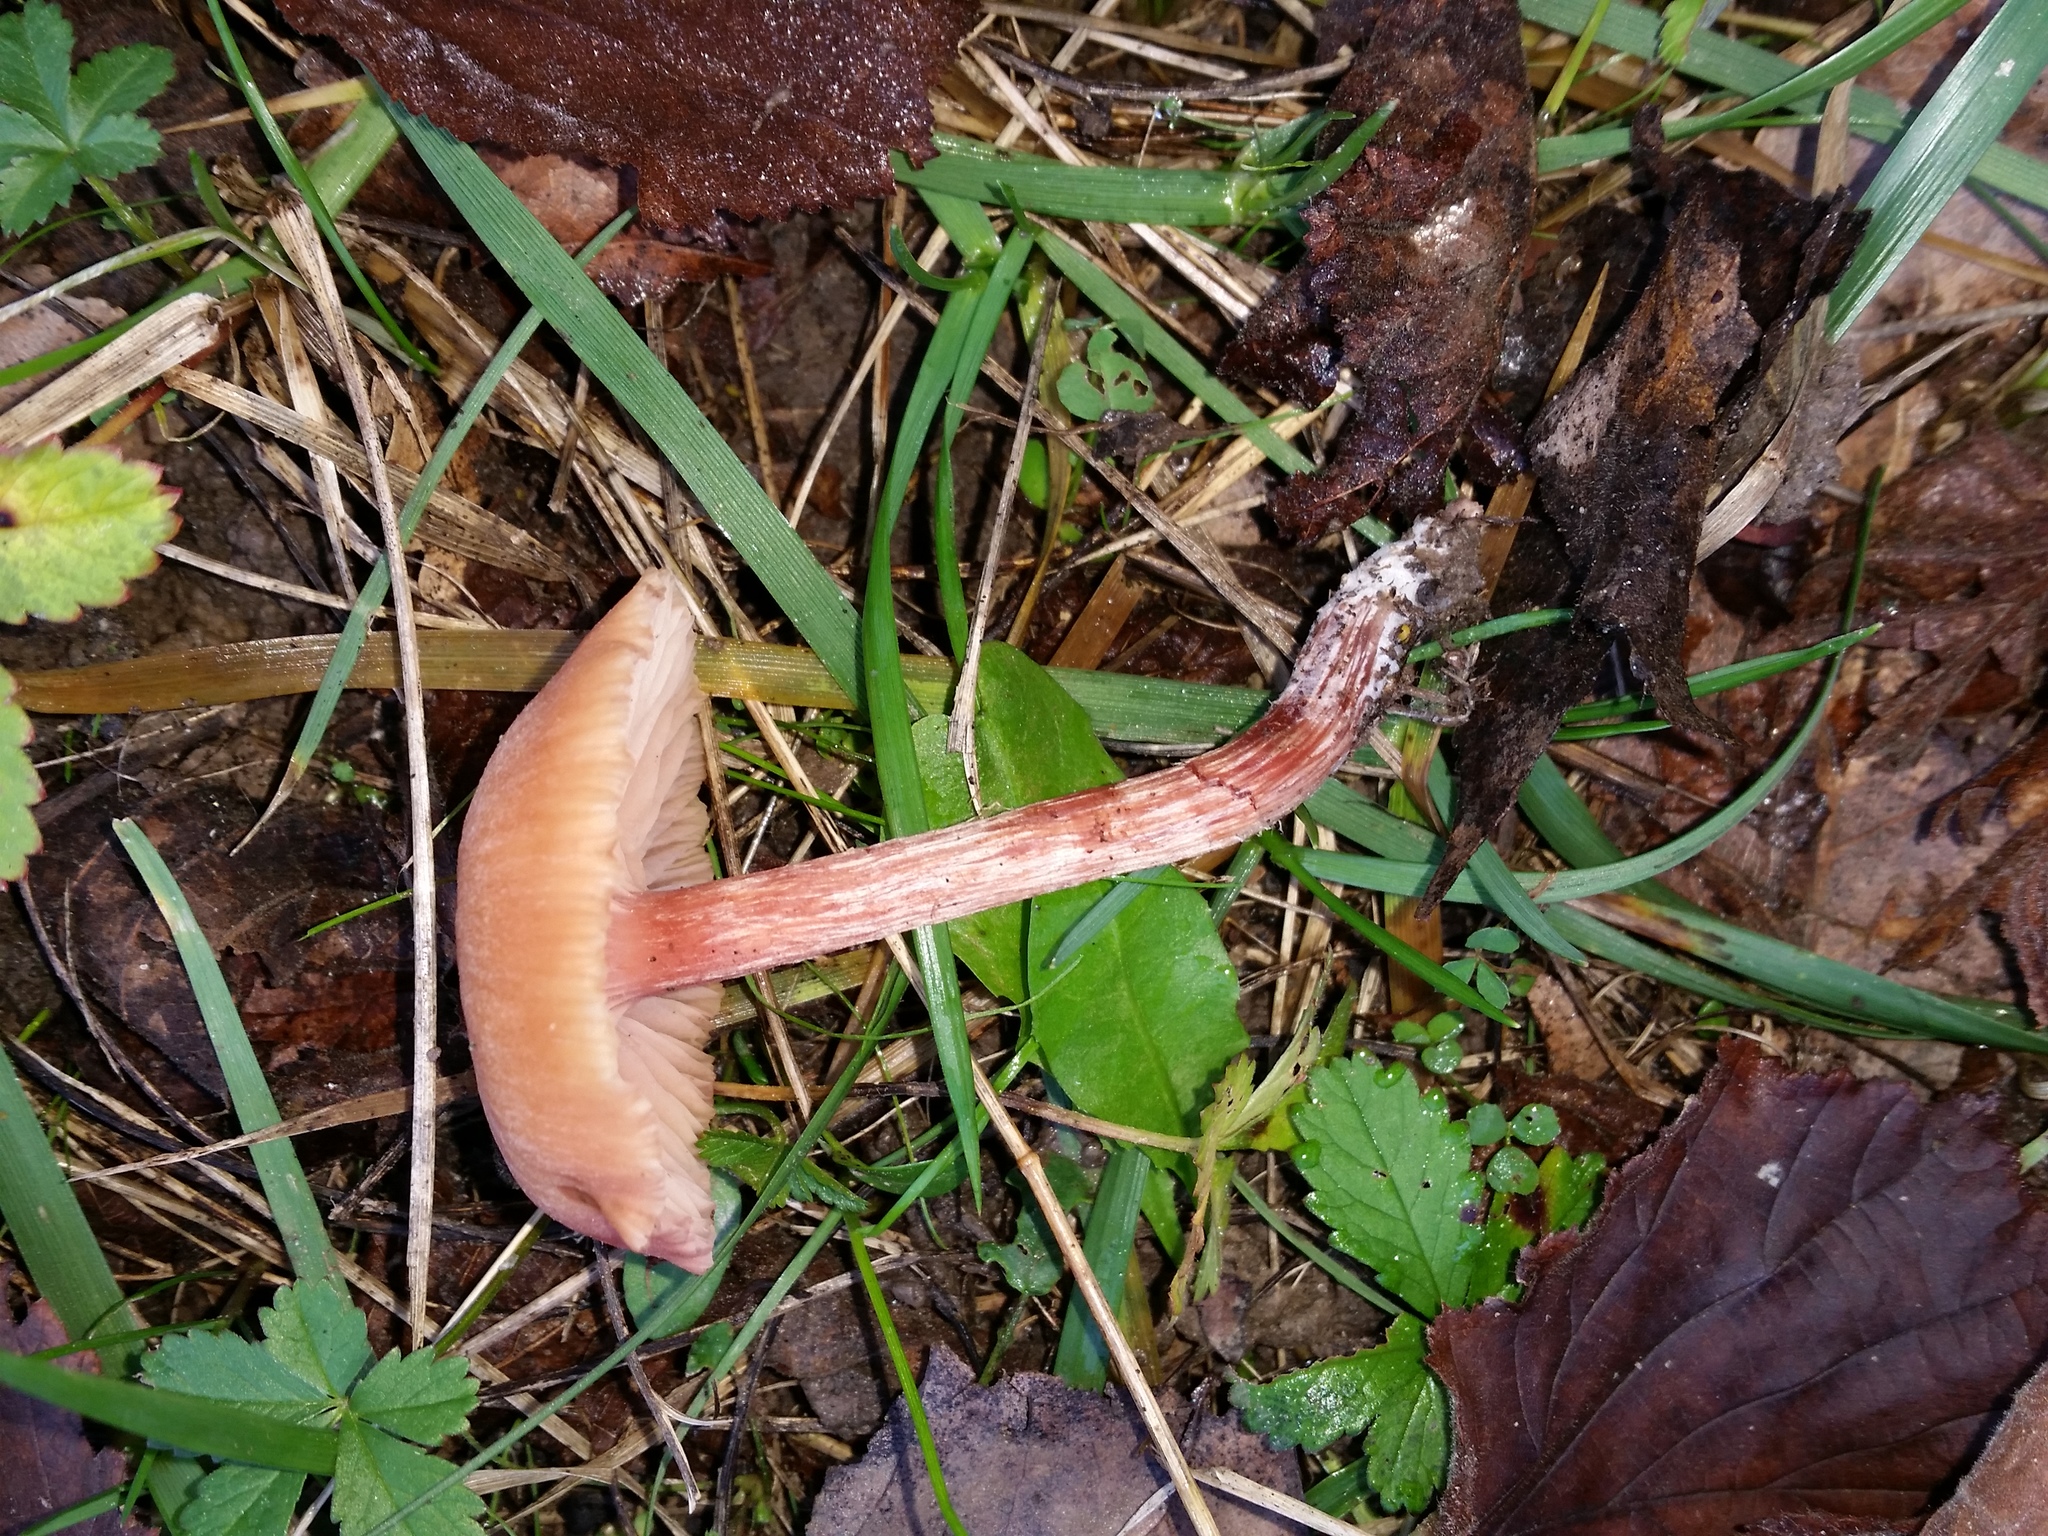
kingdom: Fungi
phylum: Basidiomycota
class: Agaricomycetes
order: Agaricales
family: Hydnangiaceae
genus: Laccaria
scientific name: Laccaria laccata
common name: Deceiver
